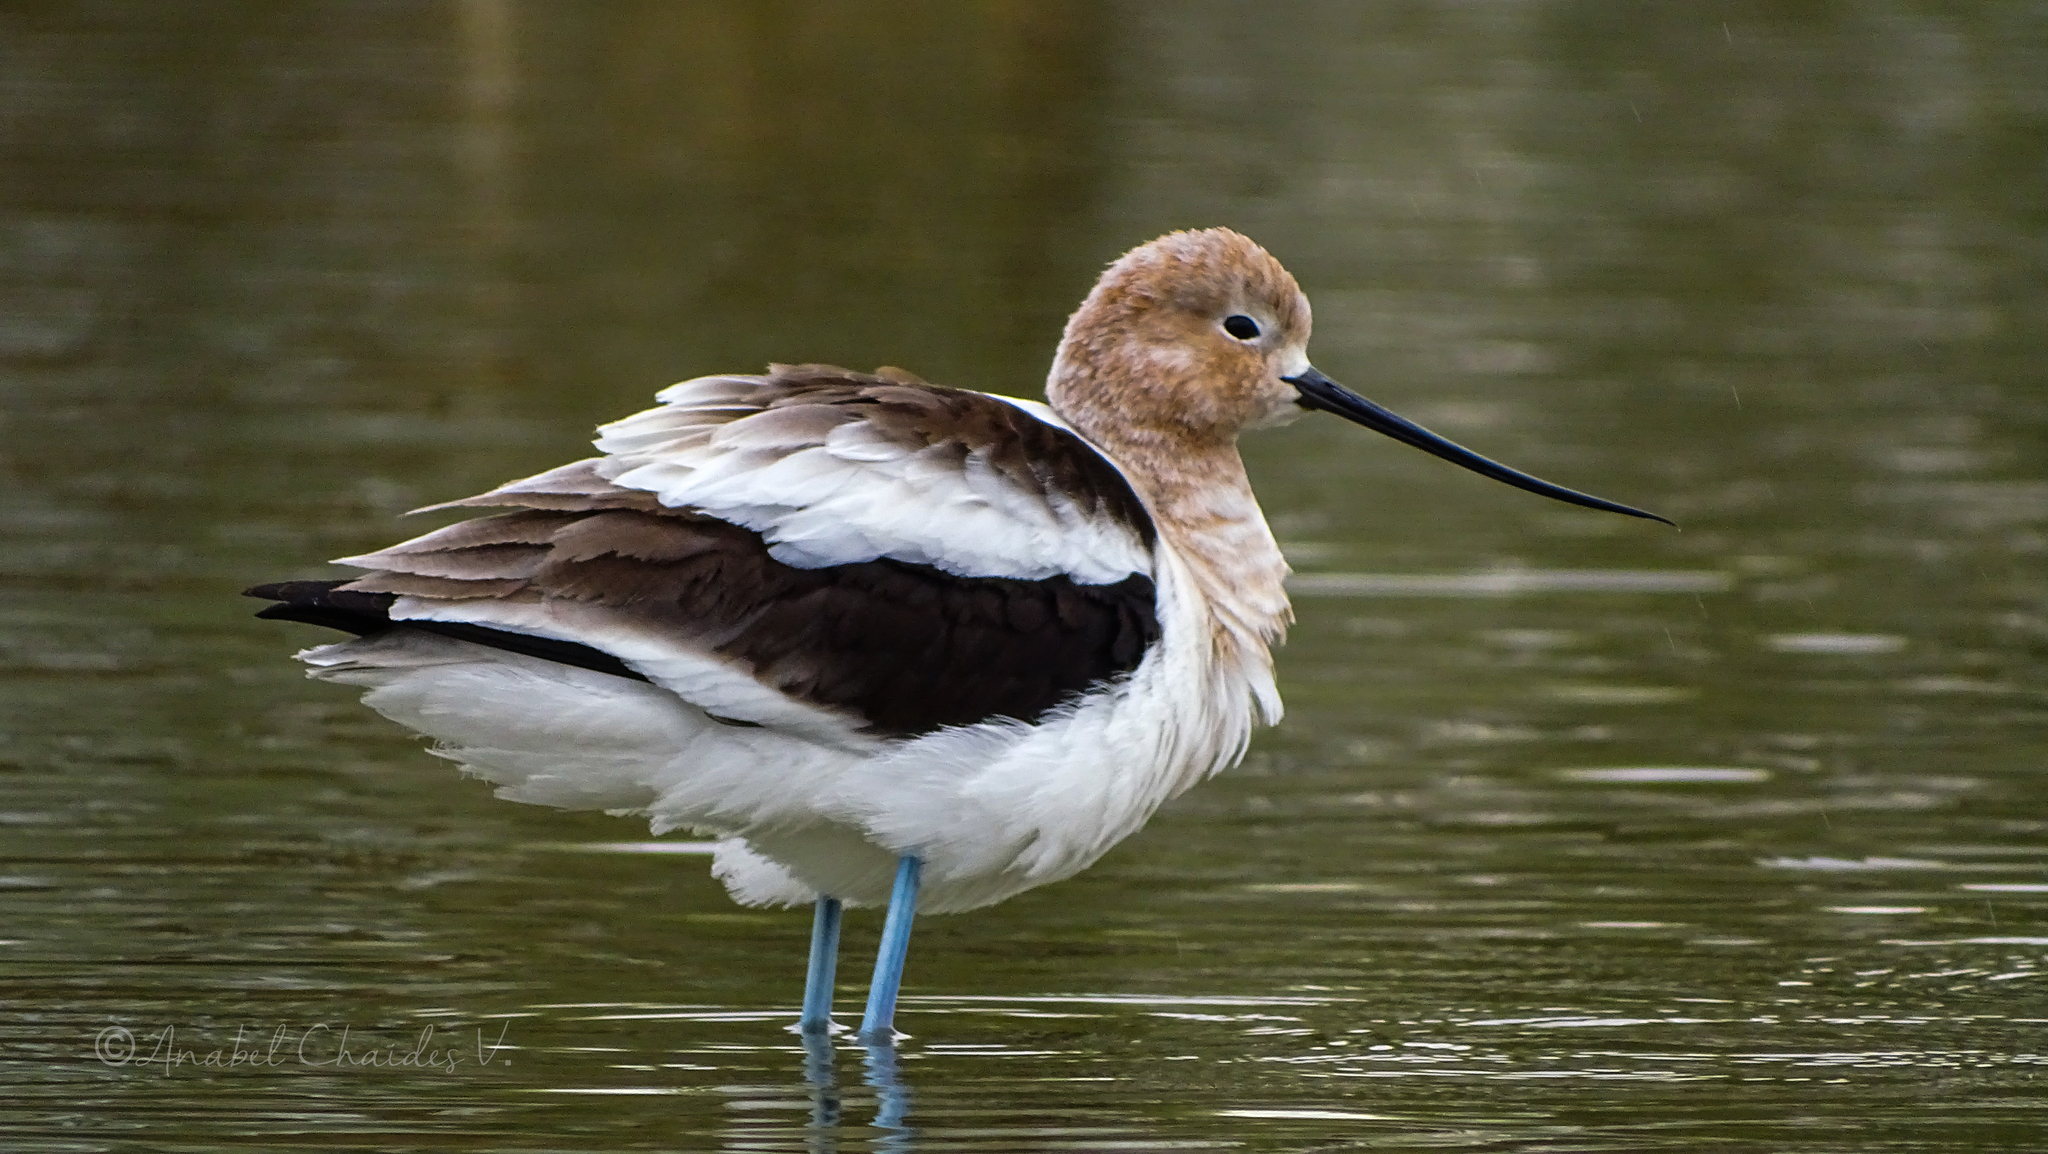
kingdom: Animalia
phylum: Chordata
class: Aves
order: Charadriiformes
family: Recurvirostridae
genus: Recurvirostra
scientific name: Recurvirostra americana
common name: American avocet
